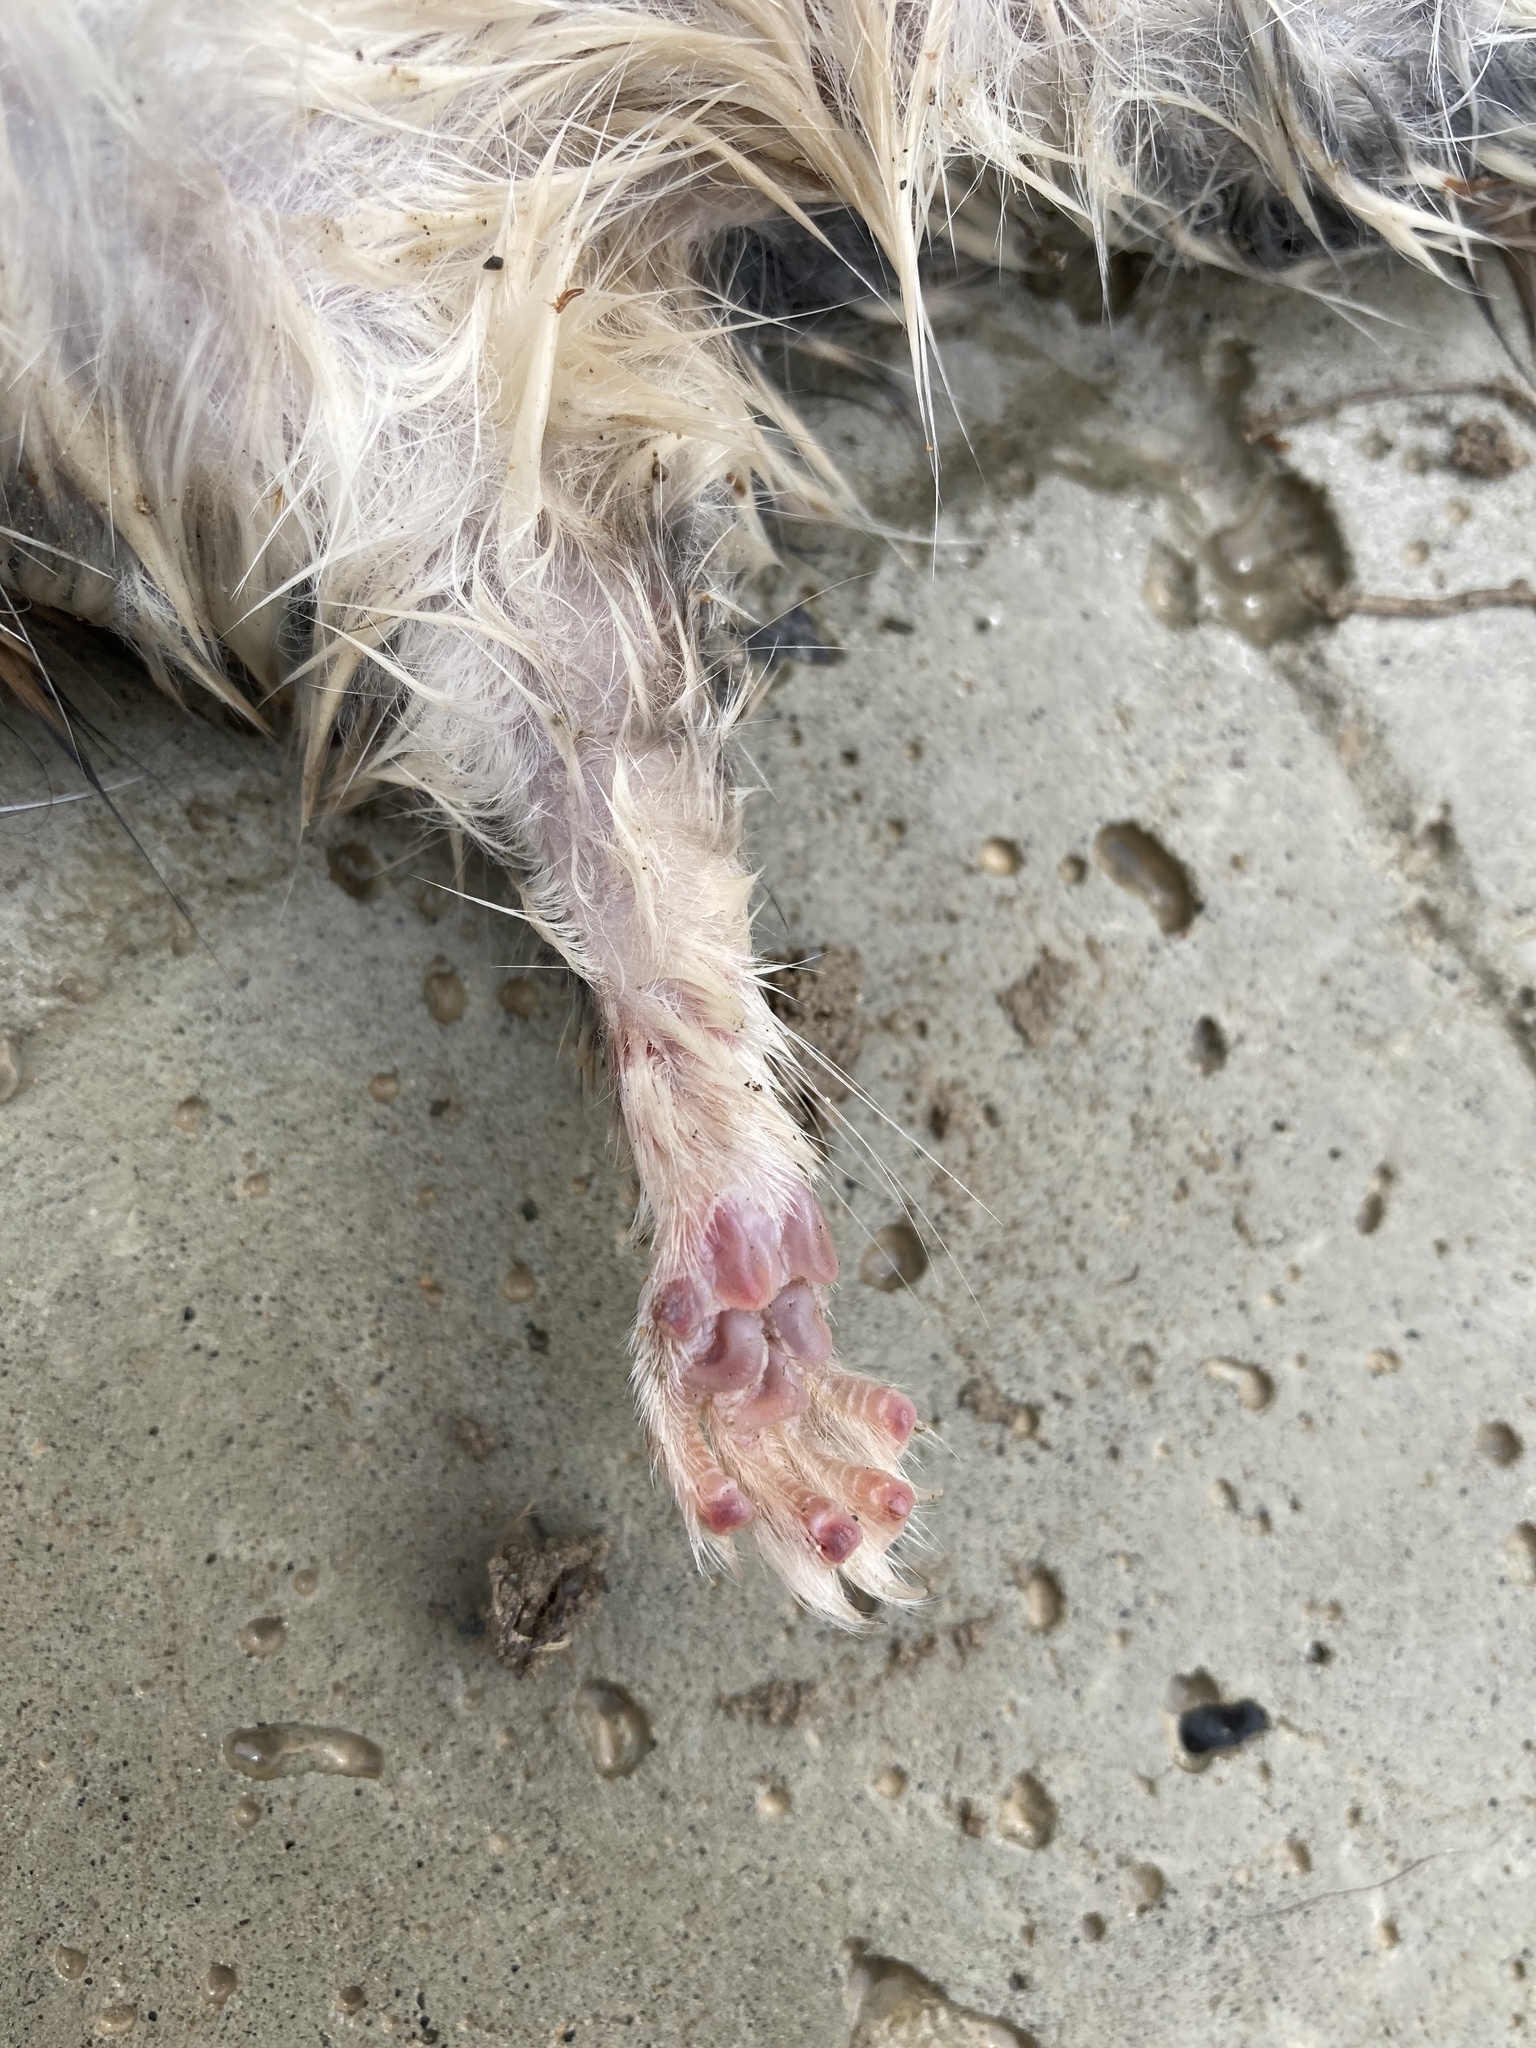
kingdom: Animalia
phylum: Chordata
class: Mammalia
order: Rodentia
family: Cricetidae
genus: Neotoma
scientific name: Neotoma cinerea
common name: Bushy-tailed woodrat
